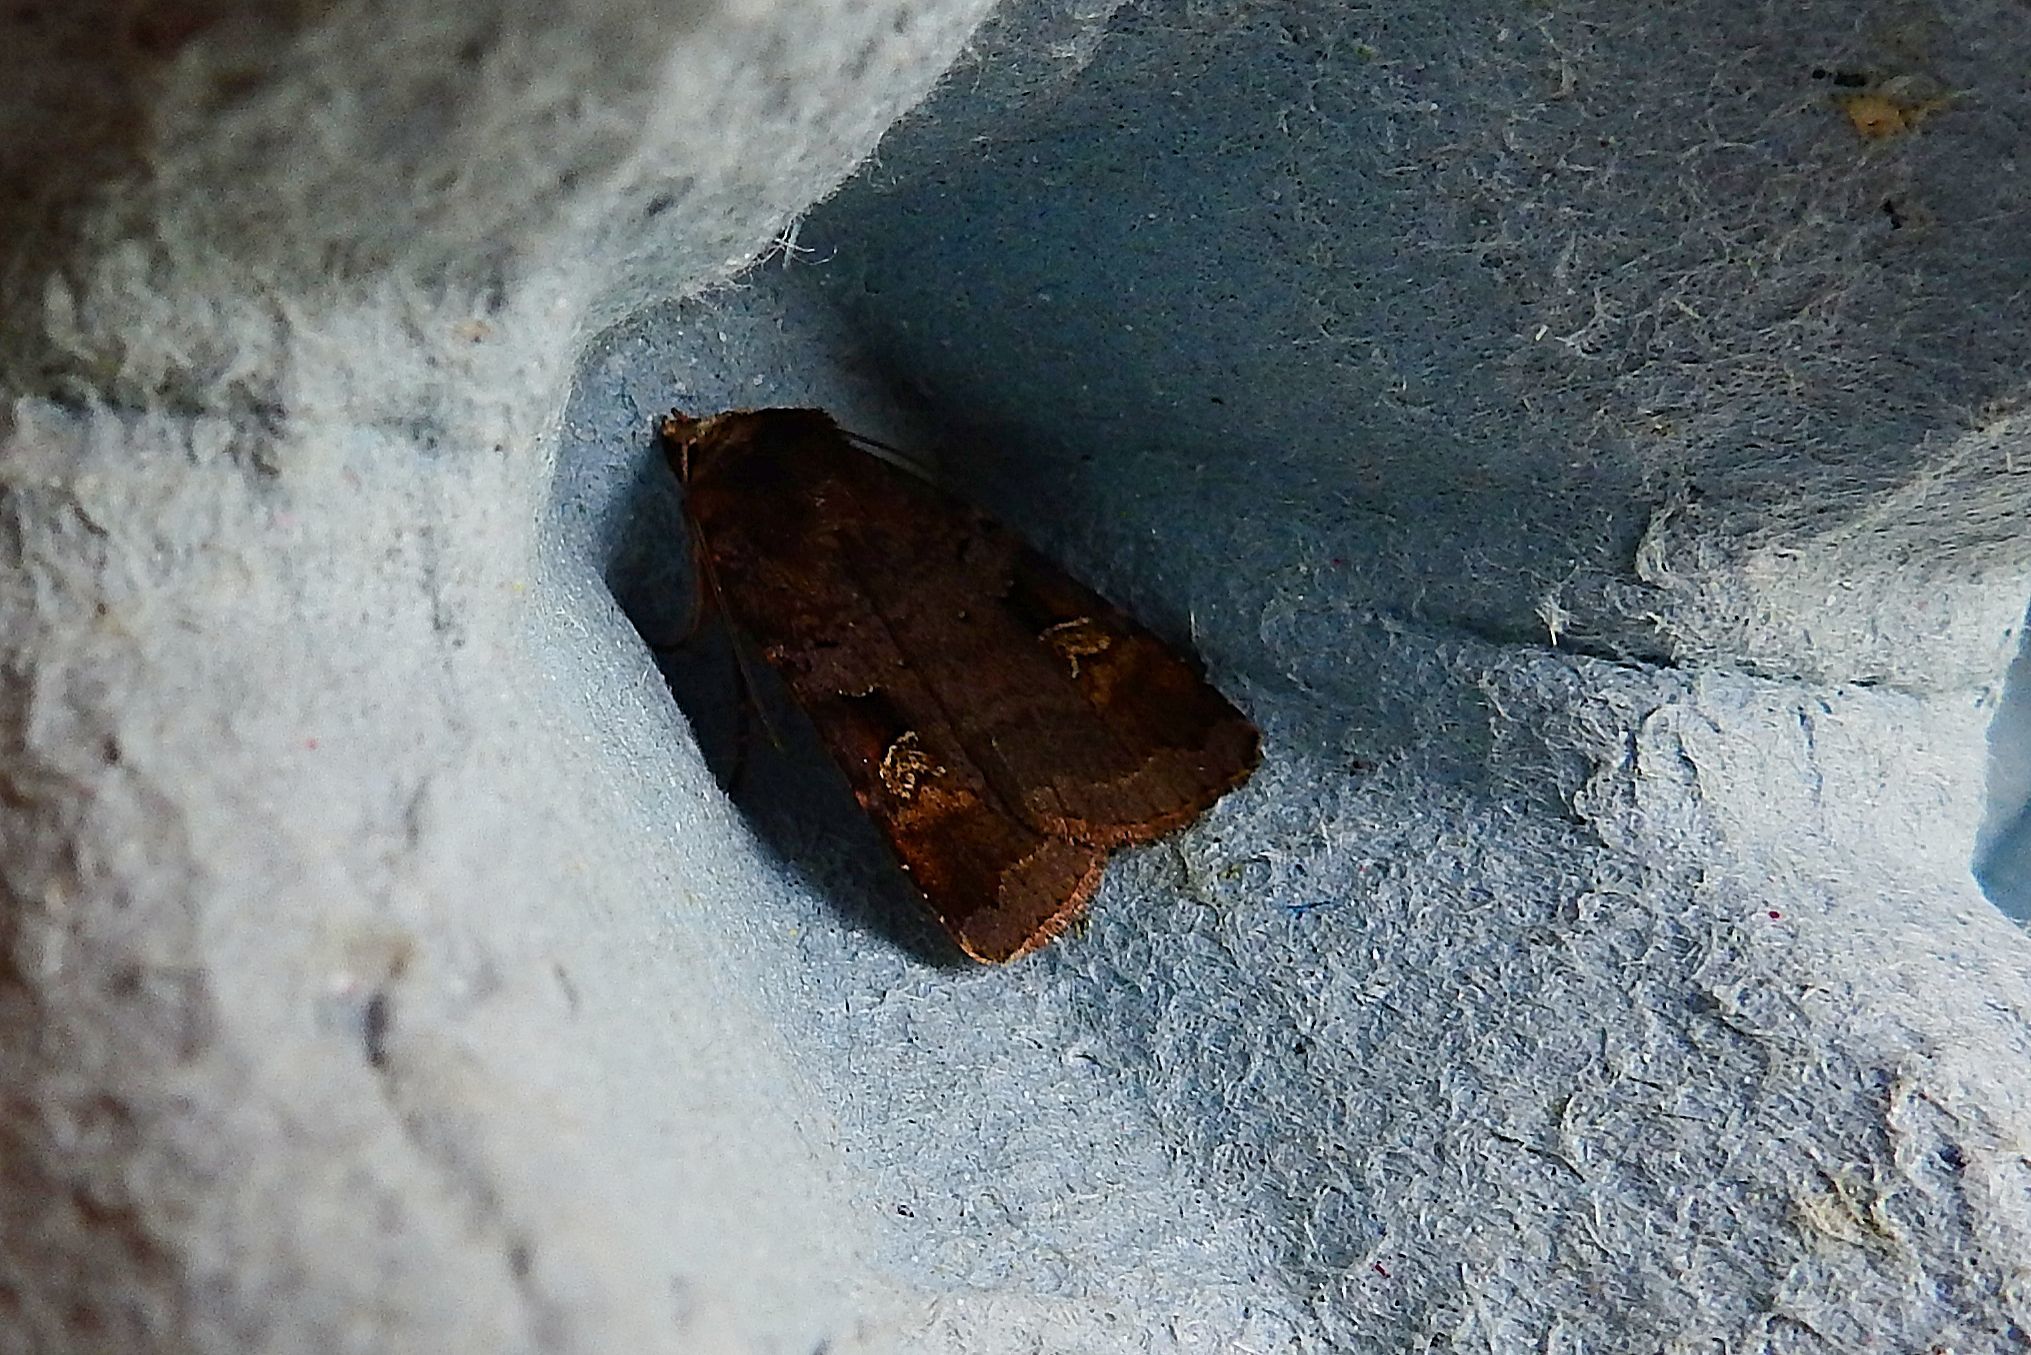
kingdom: Animalia
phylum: Arthropoda
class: Insecta
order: Lepidoptera
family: Noctuidae
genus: Diarsia
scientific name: Diarsia brunnea
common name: Purple clay
